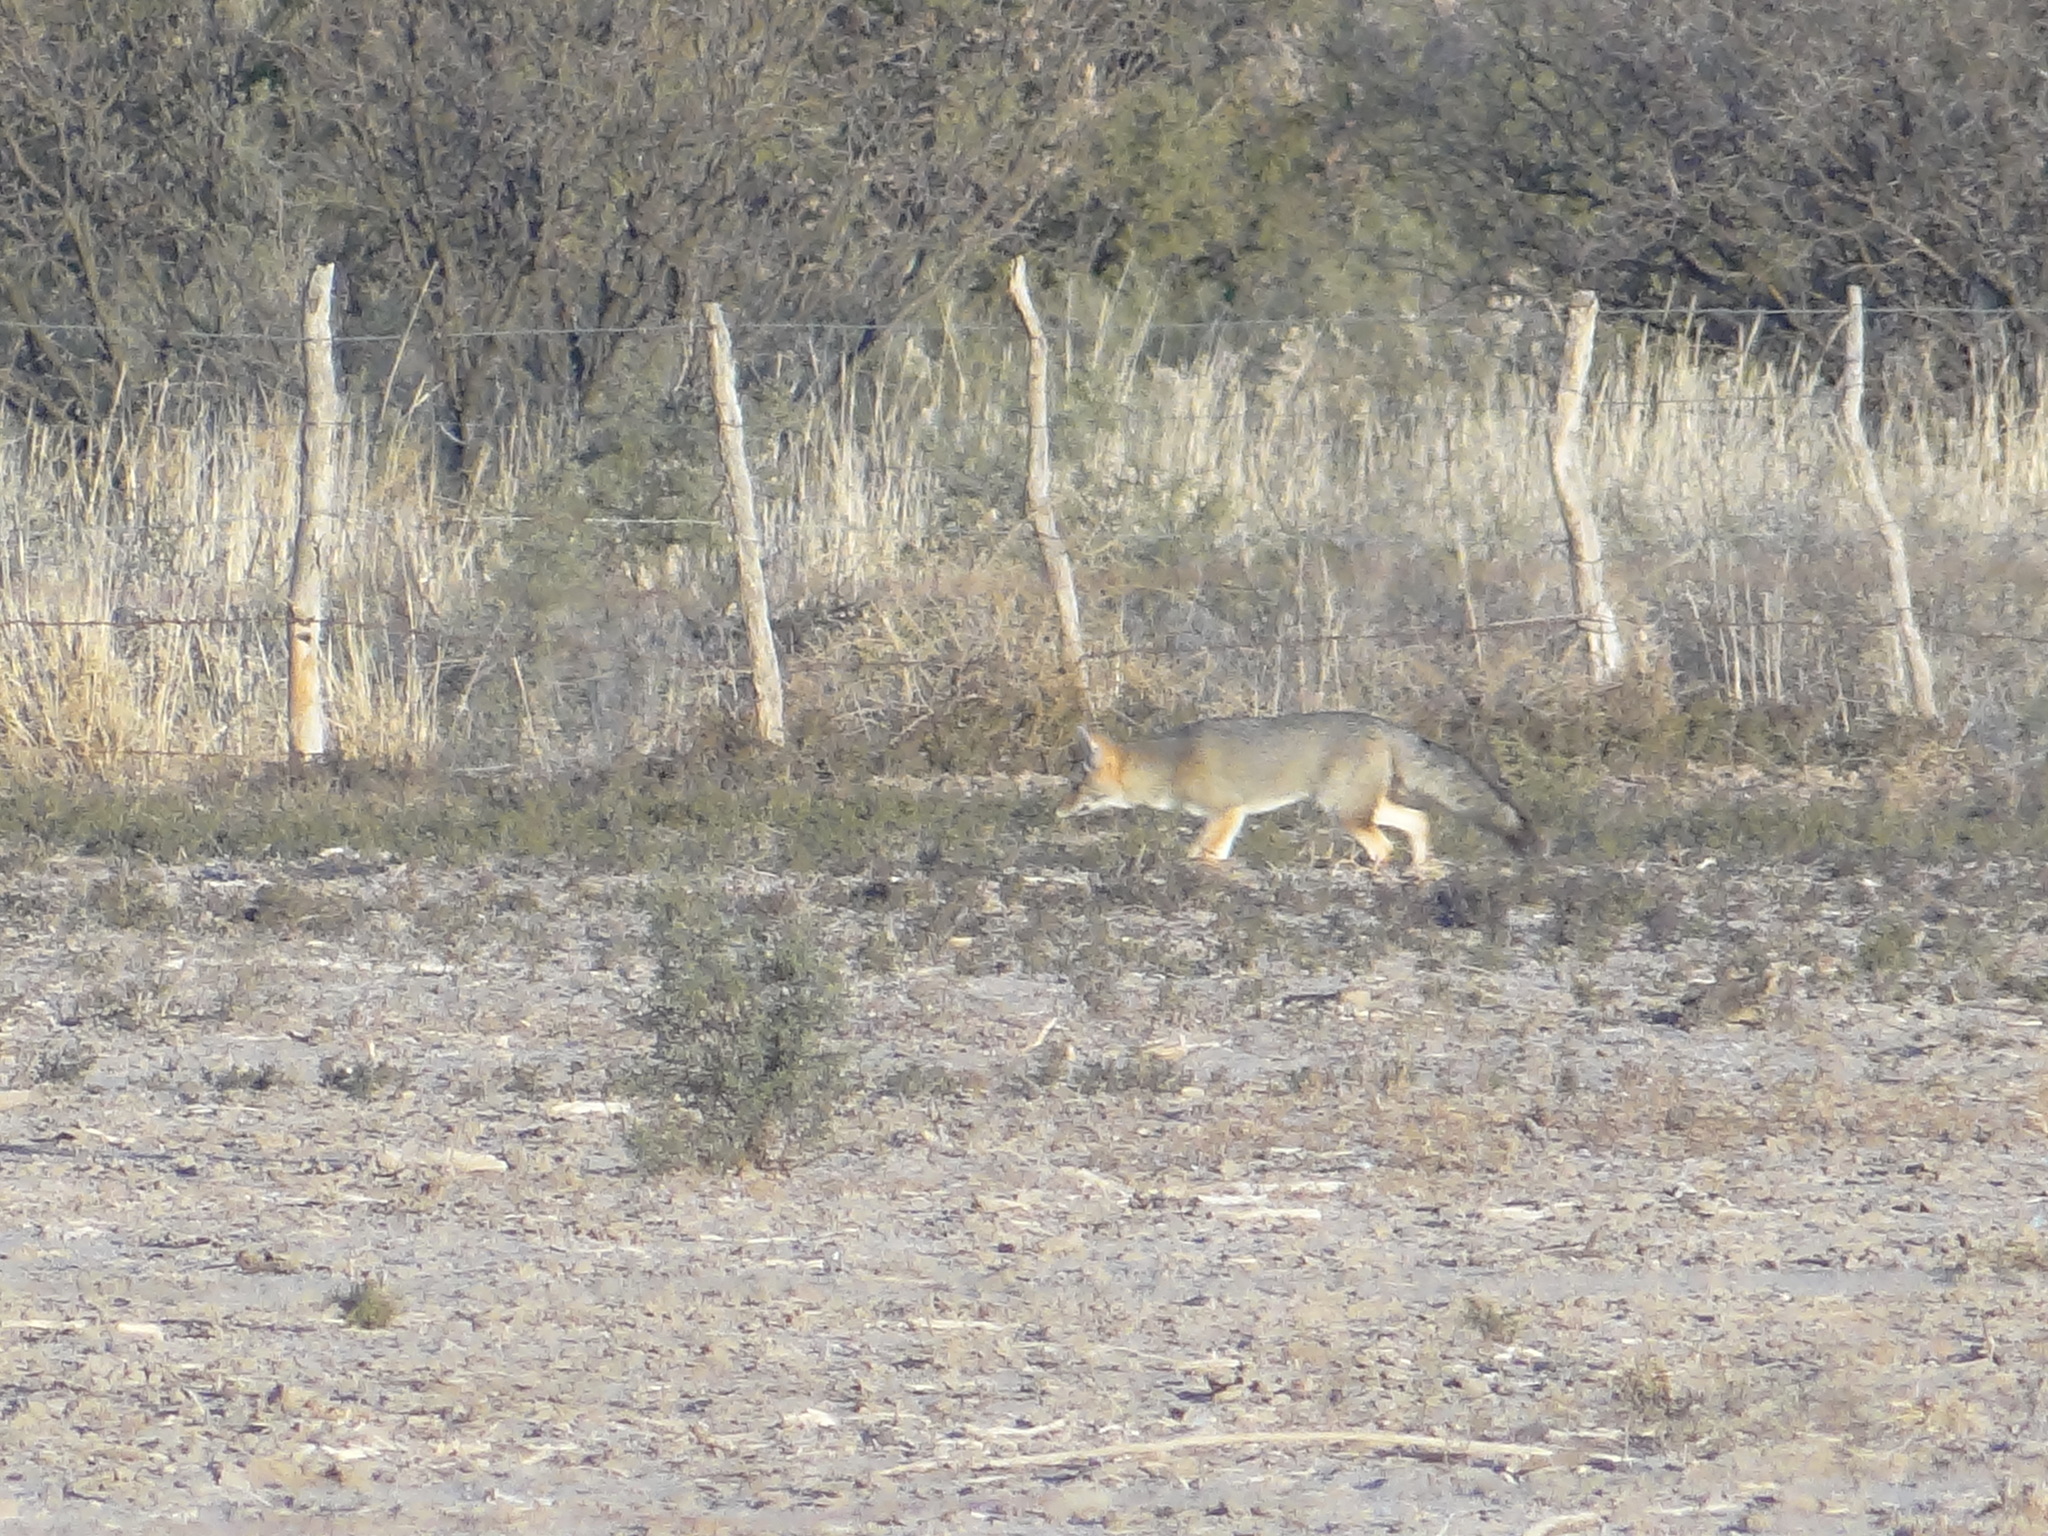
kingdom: Animalia
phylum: Chordata
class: Mammalia
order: Carnivora
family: Canidae
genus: Lycalopex
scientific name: Lycalopex gymnocercus
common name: Pampas fox
